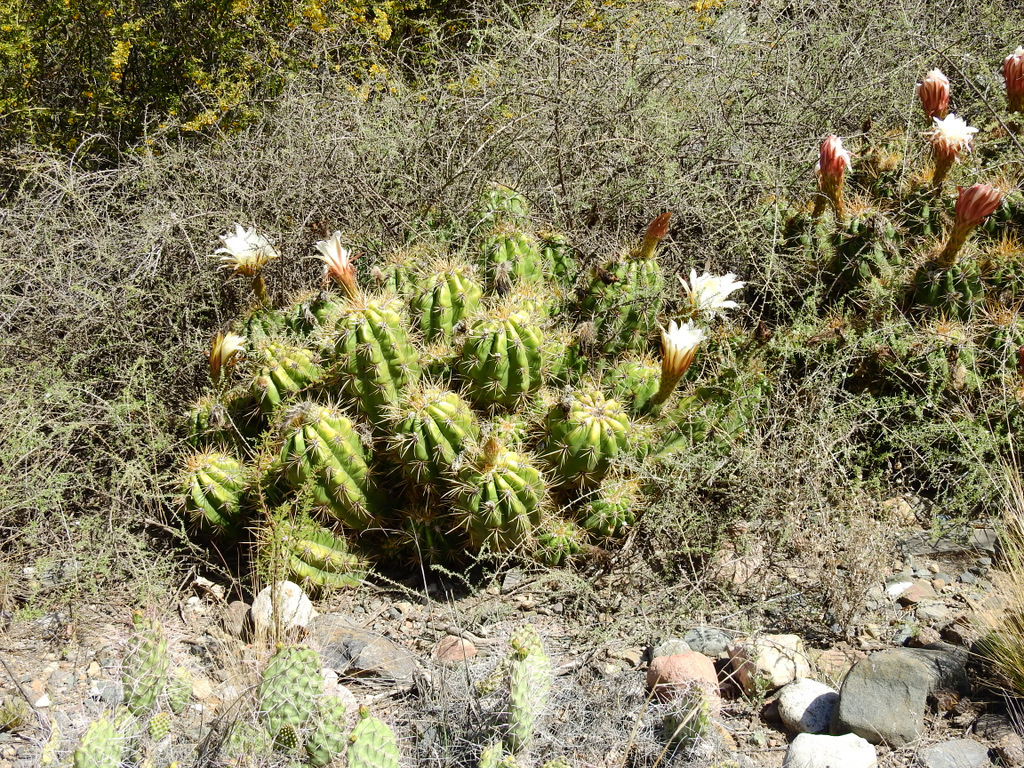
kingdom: Plantae
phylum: Tracheophyta
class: Magnoliopsida
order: Caryophyllales
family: Cactaceae
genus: Soehrensia
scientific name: Soehrensia candicans
